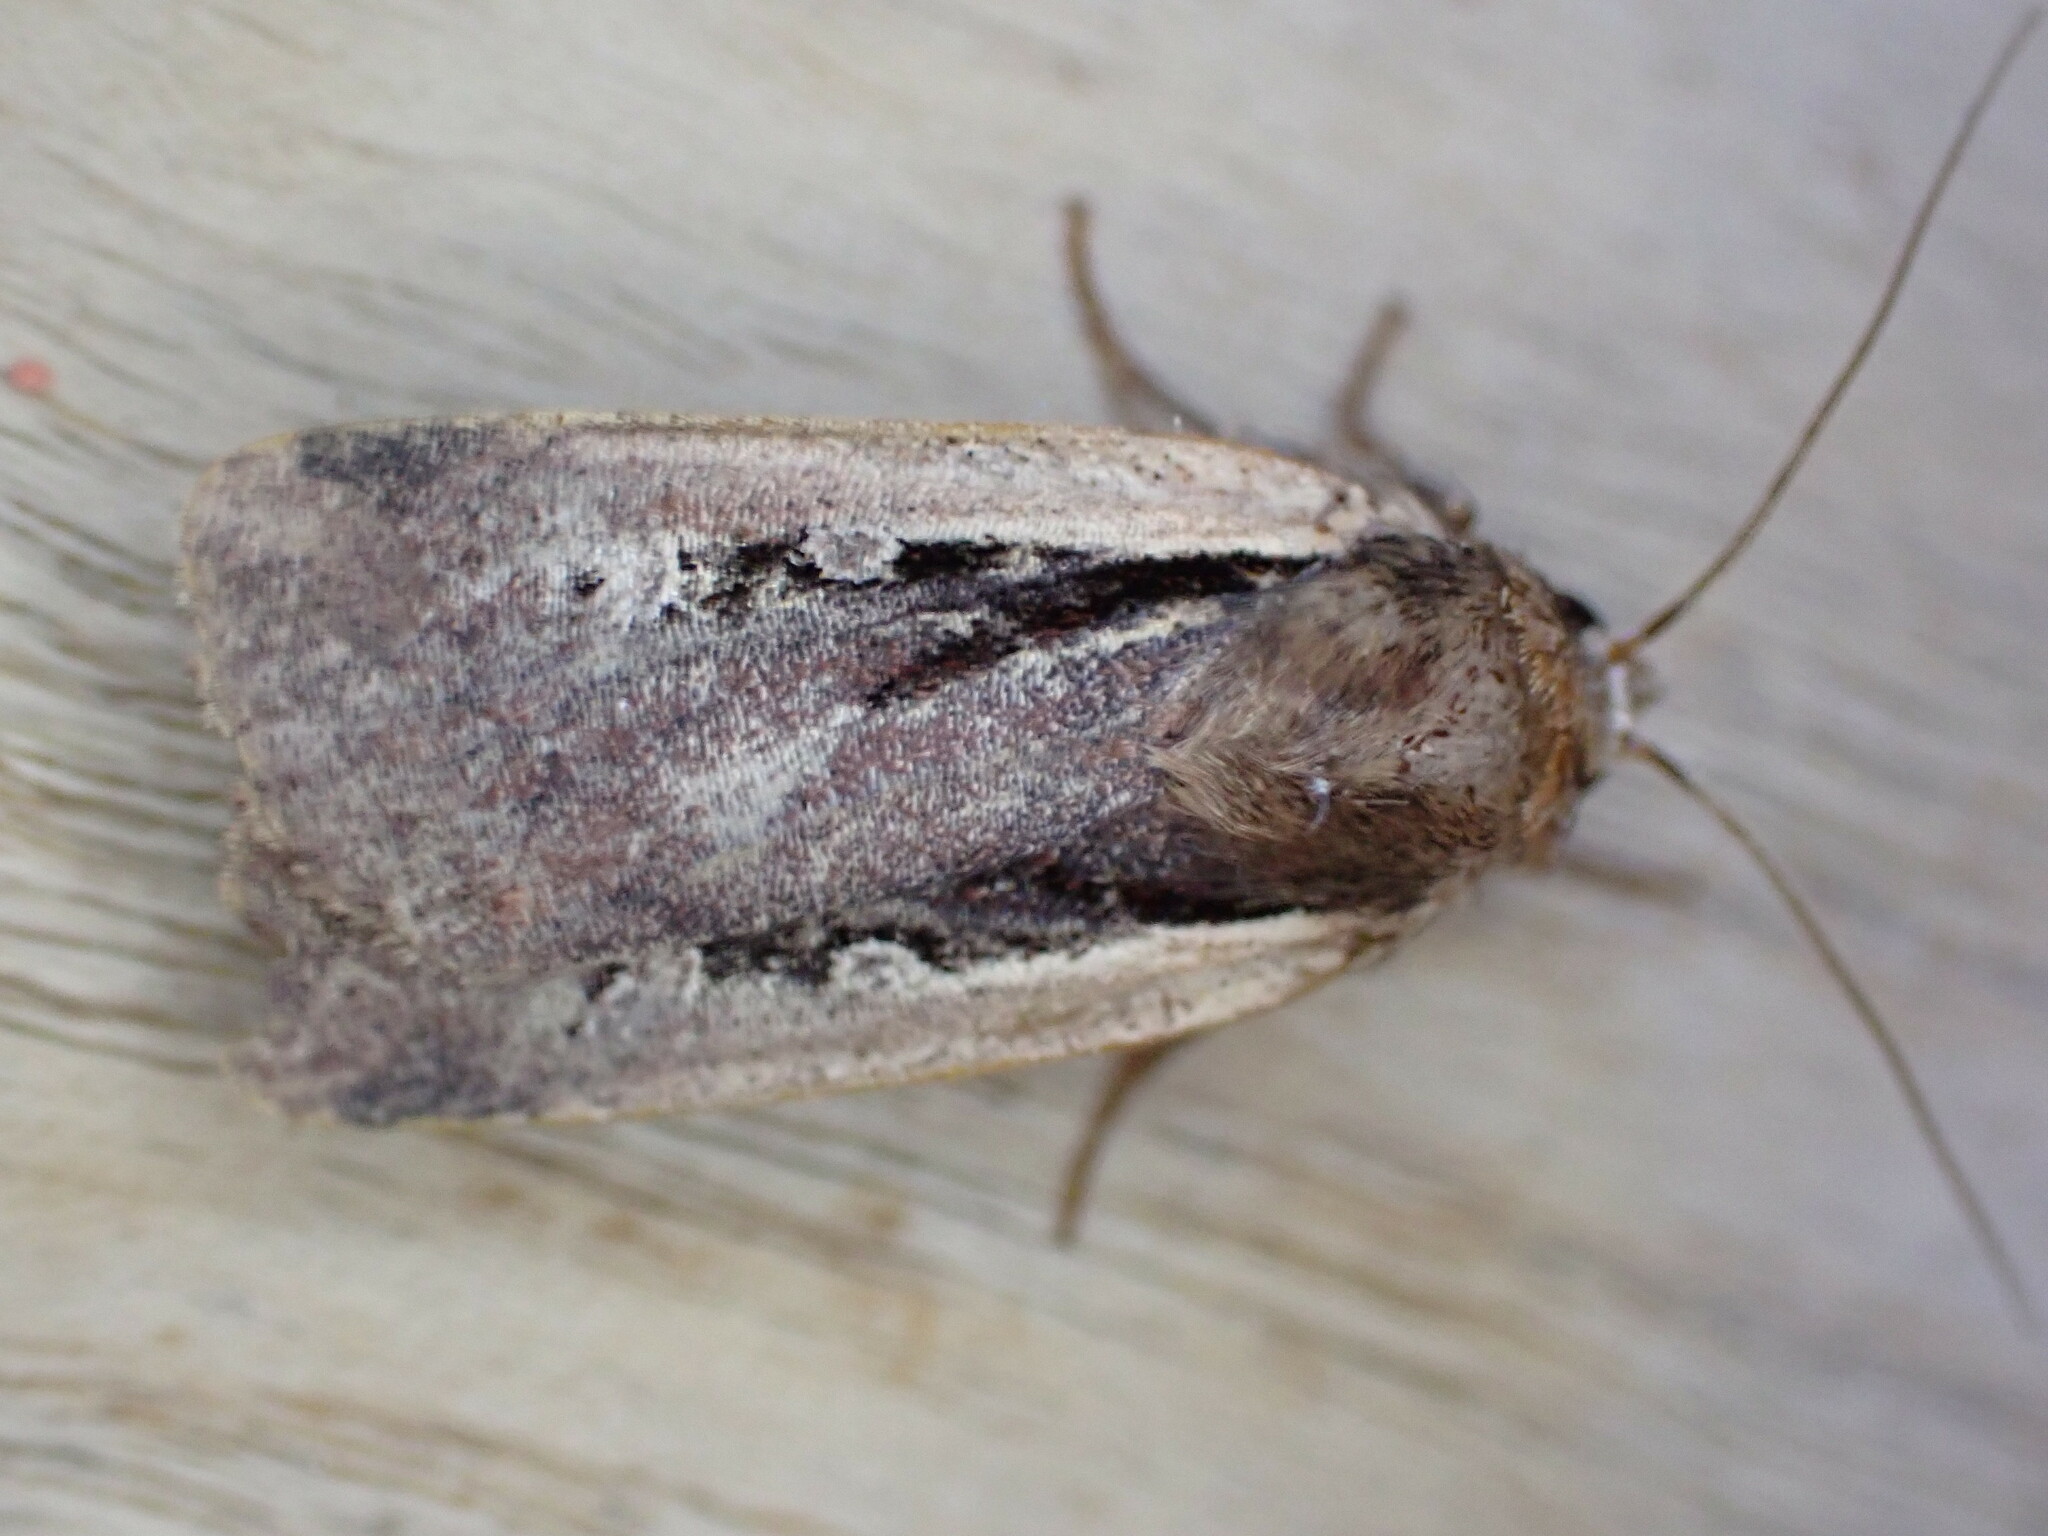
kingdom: Animalia
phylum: Arthropoda
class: Insecta
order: Lepidoptera
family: Noctuidae
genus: Ochropleura
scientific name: Ochropleura plecta
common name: Flame shoulder
